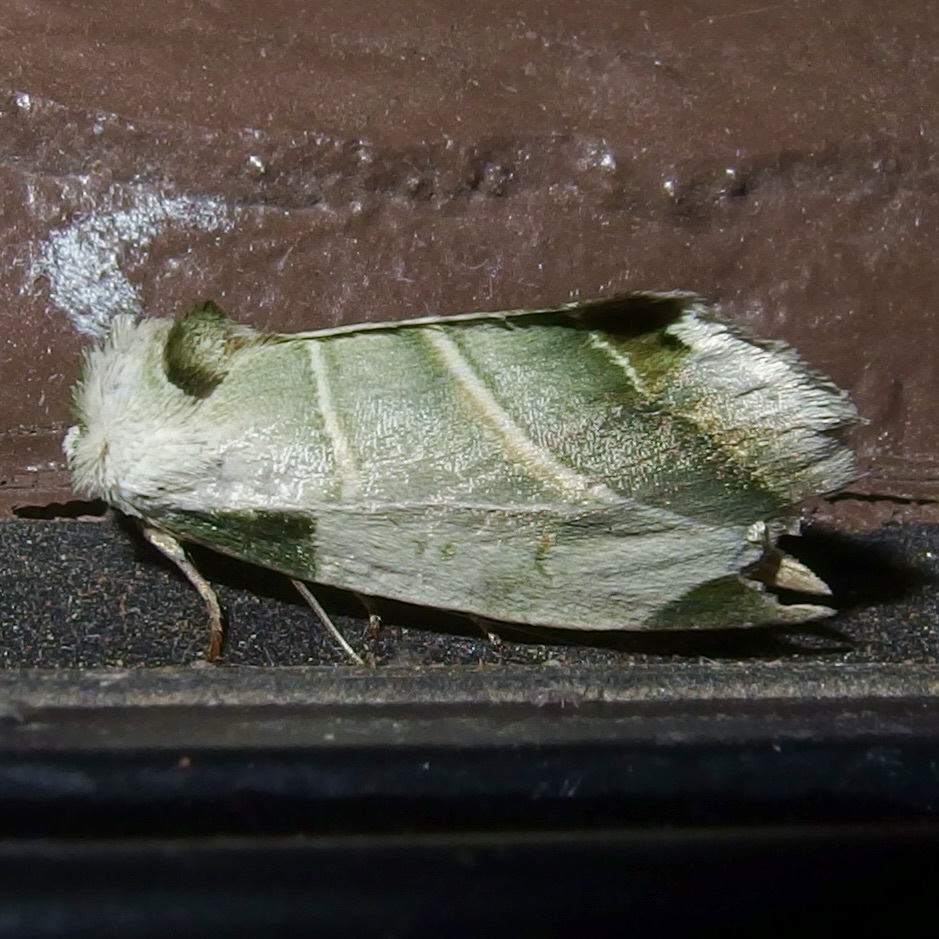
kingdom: Animalia
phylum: Arthropoda
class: Insecta
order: Lepidoptera
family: Noctuidae
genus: Heminocloa
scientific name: Heminocloa mirabilis
